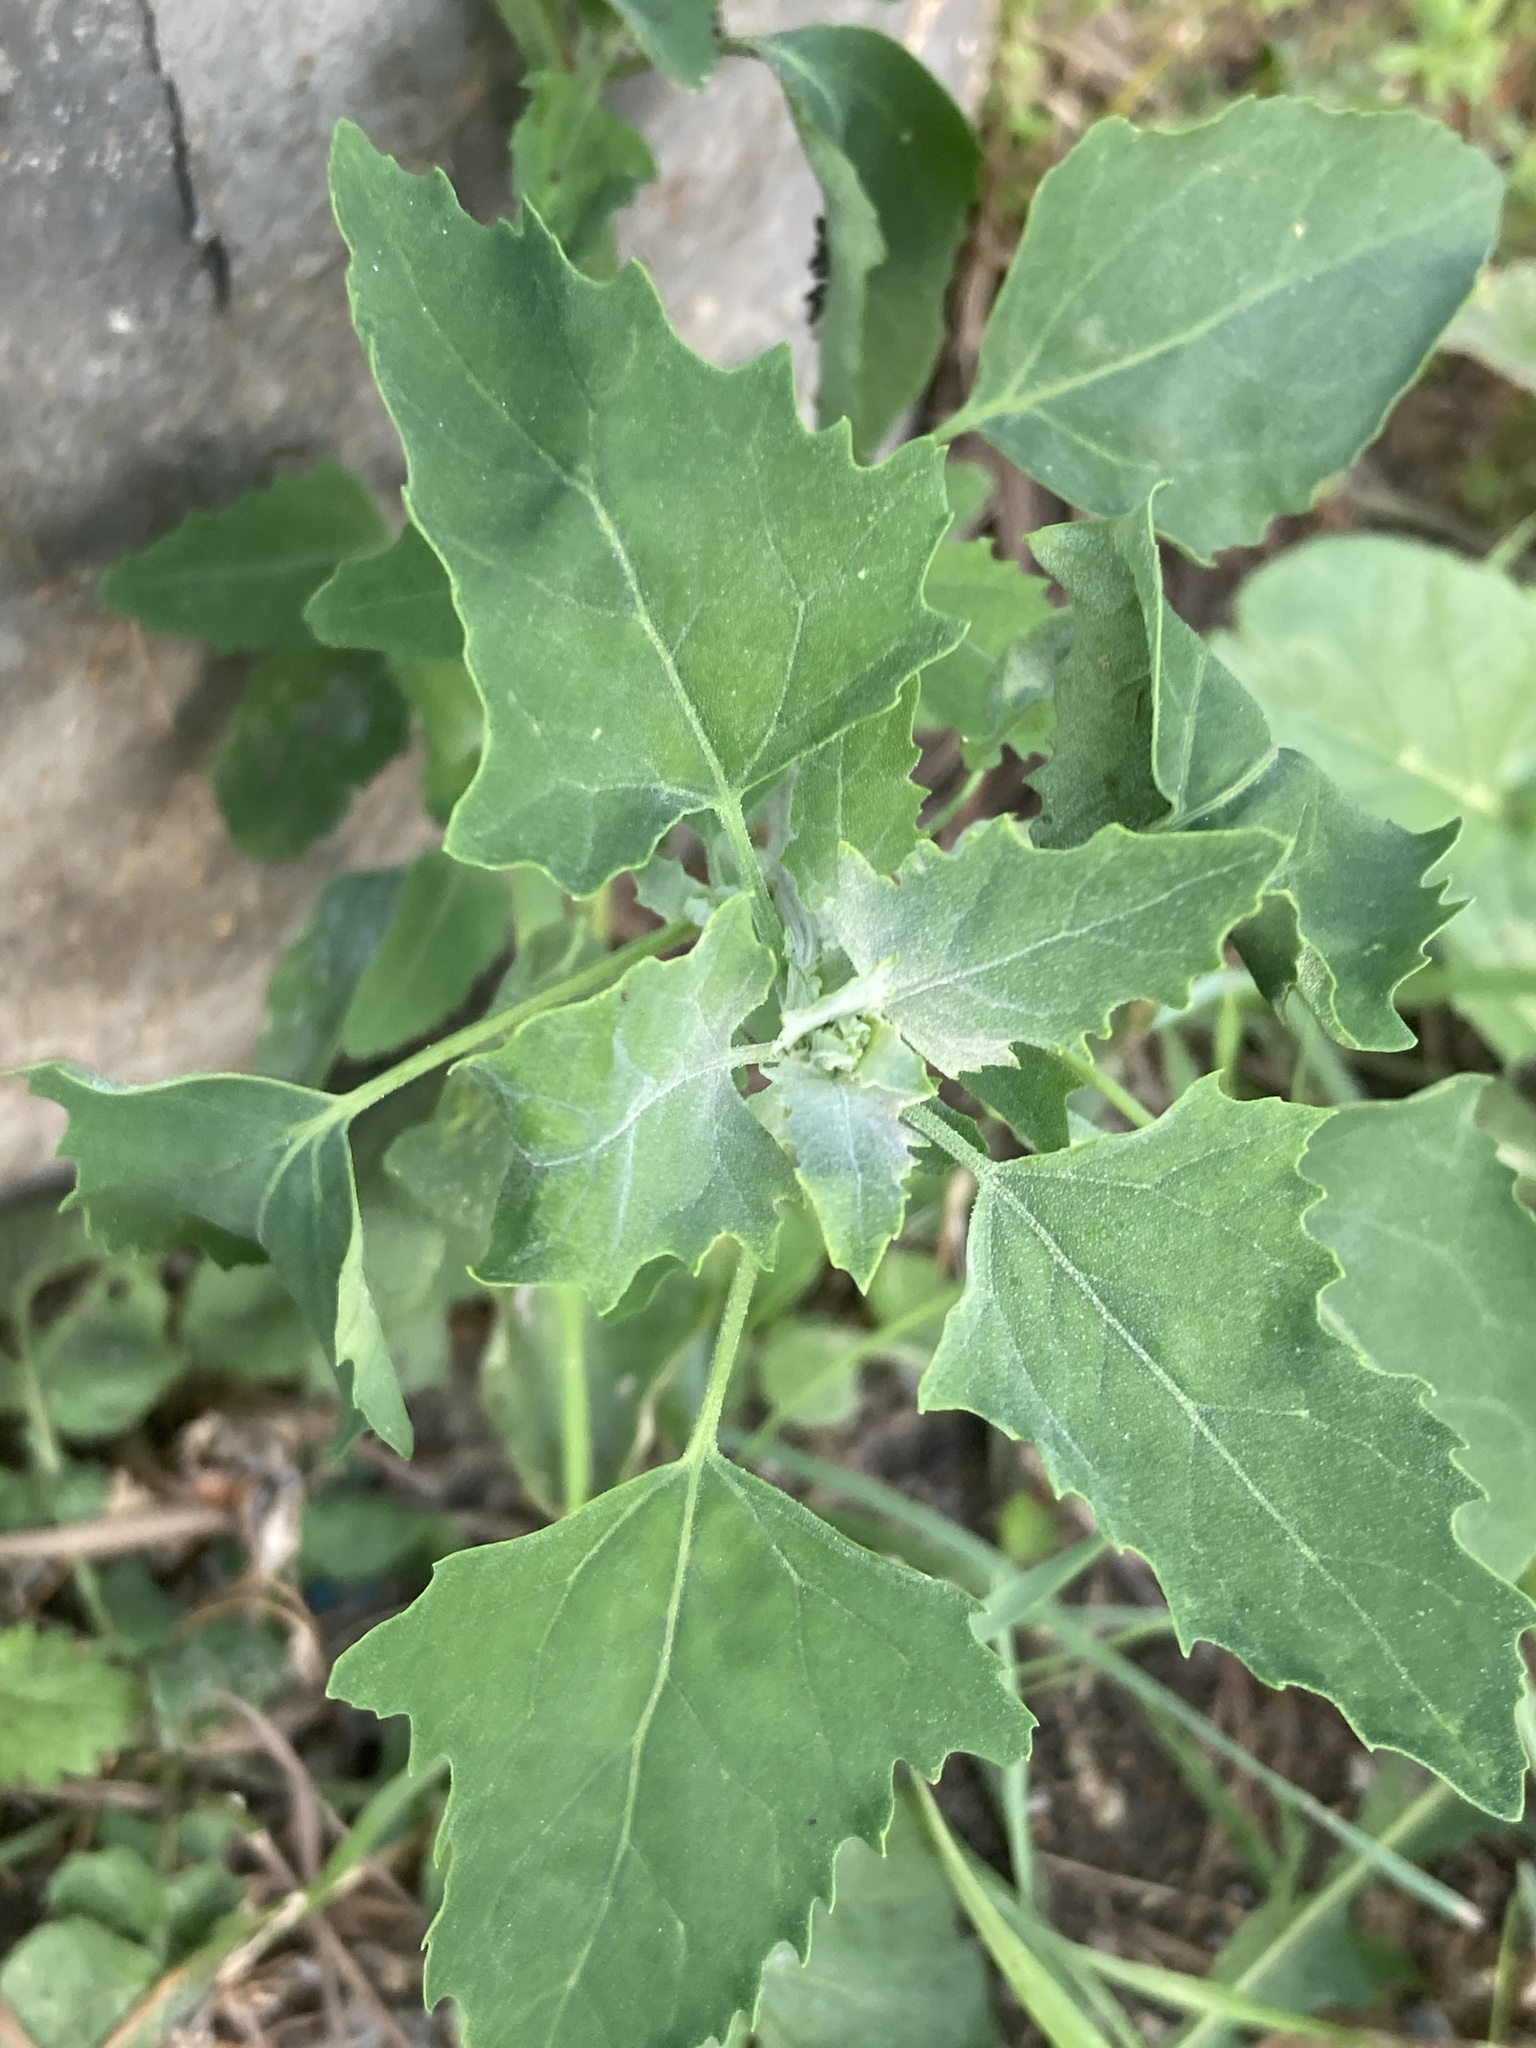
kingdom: Plantae
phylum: Tracheophyta
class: Magnoliopsida
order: Caryophyllales
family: Amaranthaceae
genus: Chenopodium
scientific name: Chenopodium album
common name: Fat-hen
